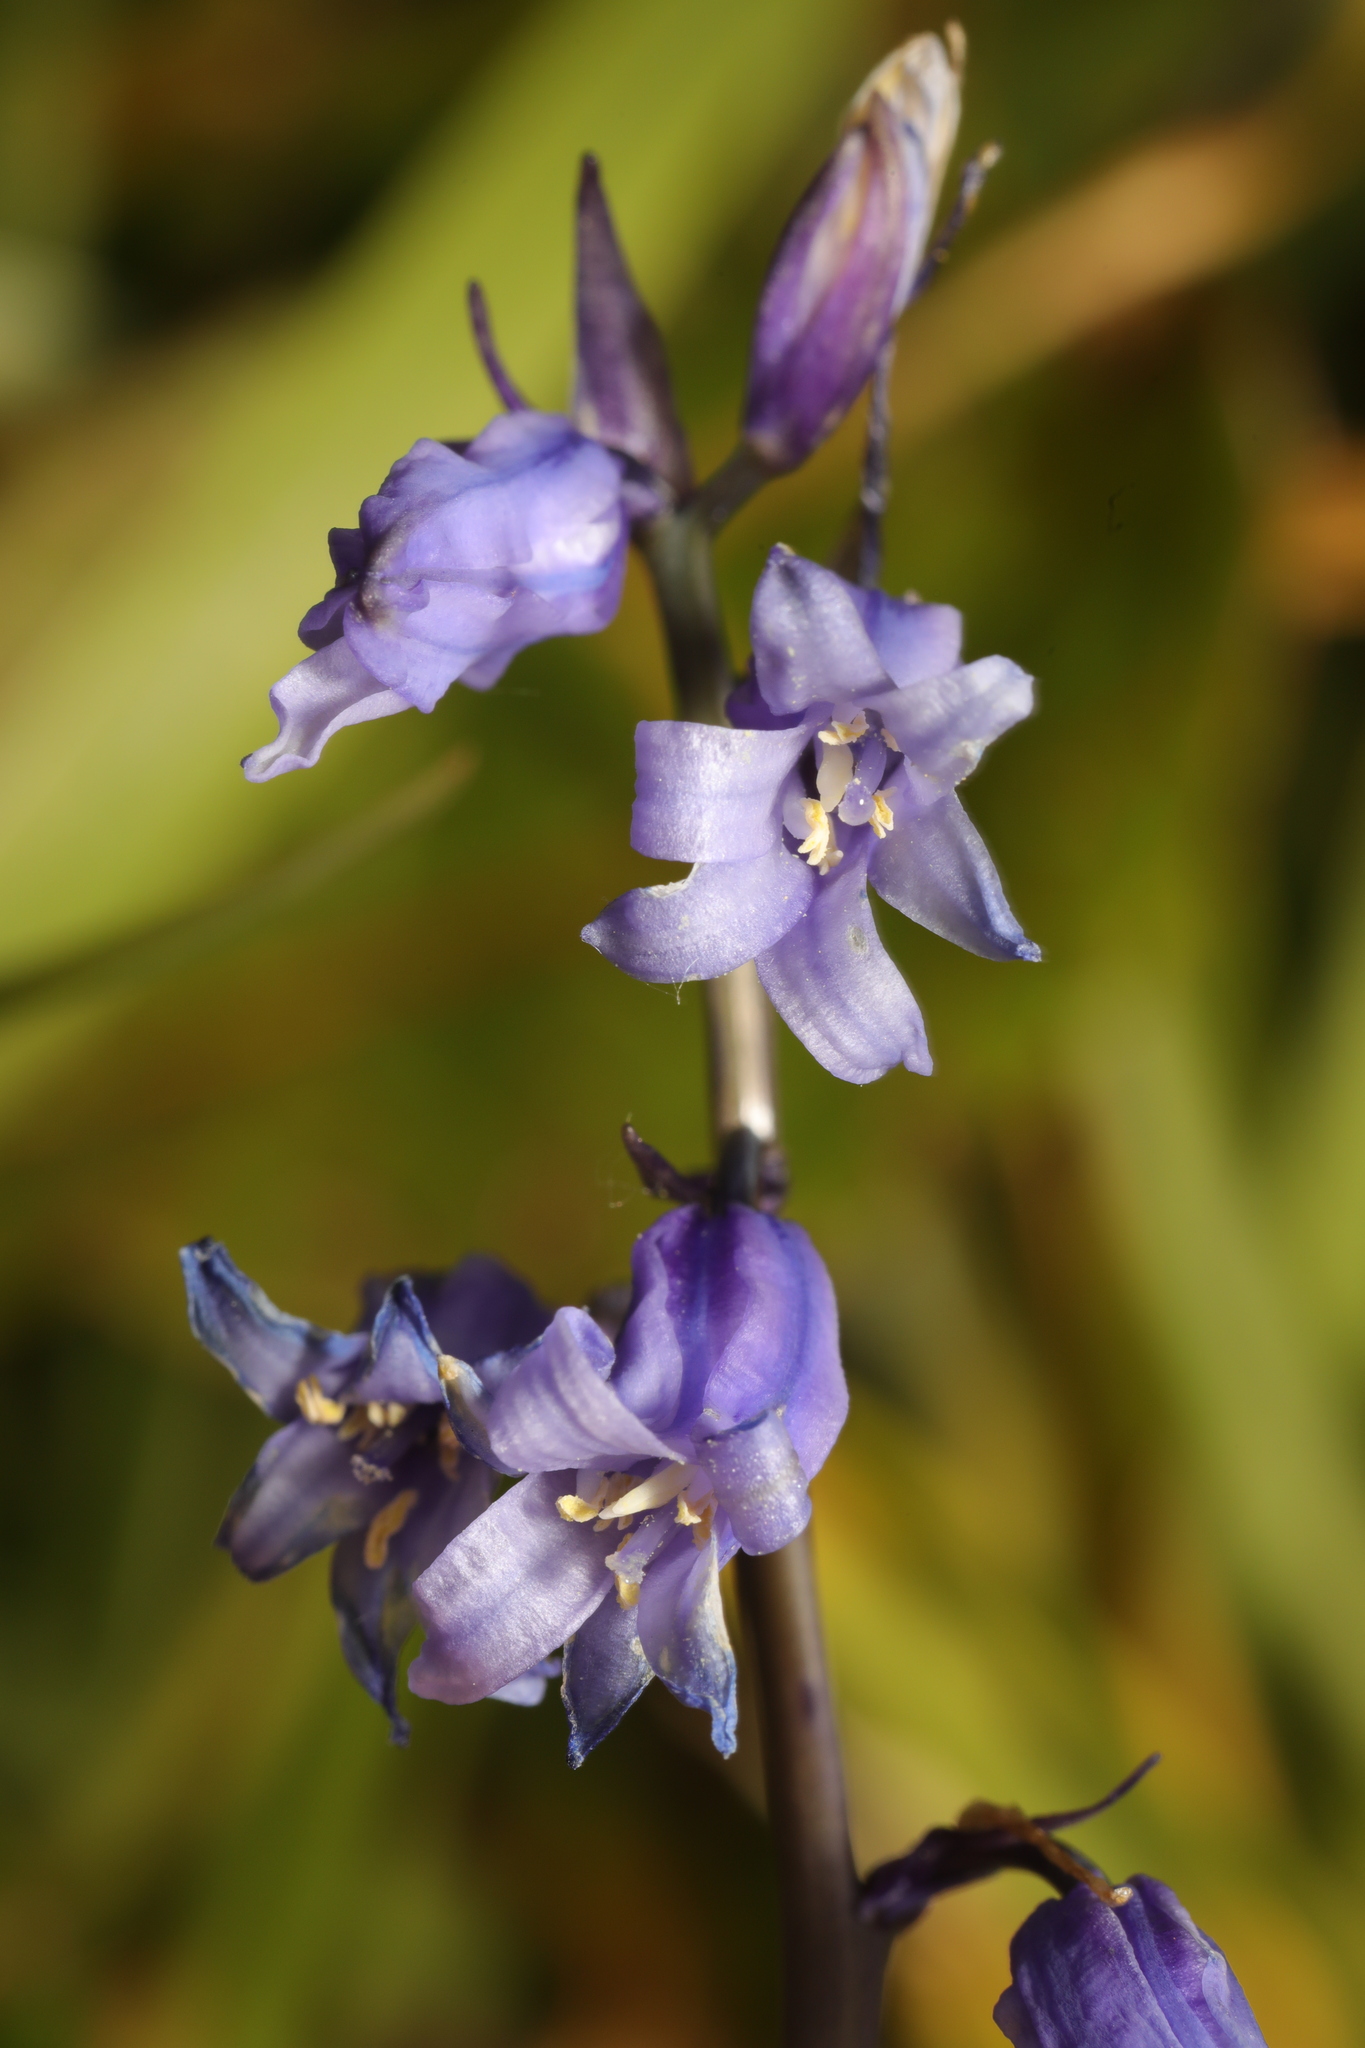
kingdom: Plantae
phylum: Tracheophyta
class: Liliopsida
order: Asparagales
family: Asparagaceae
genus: Hyacinthoides
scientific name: Hyacinthoides non-scripta
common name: Bluebell
